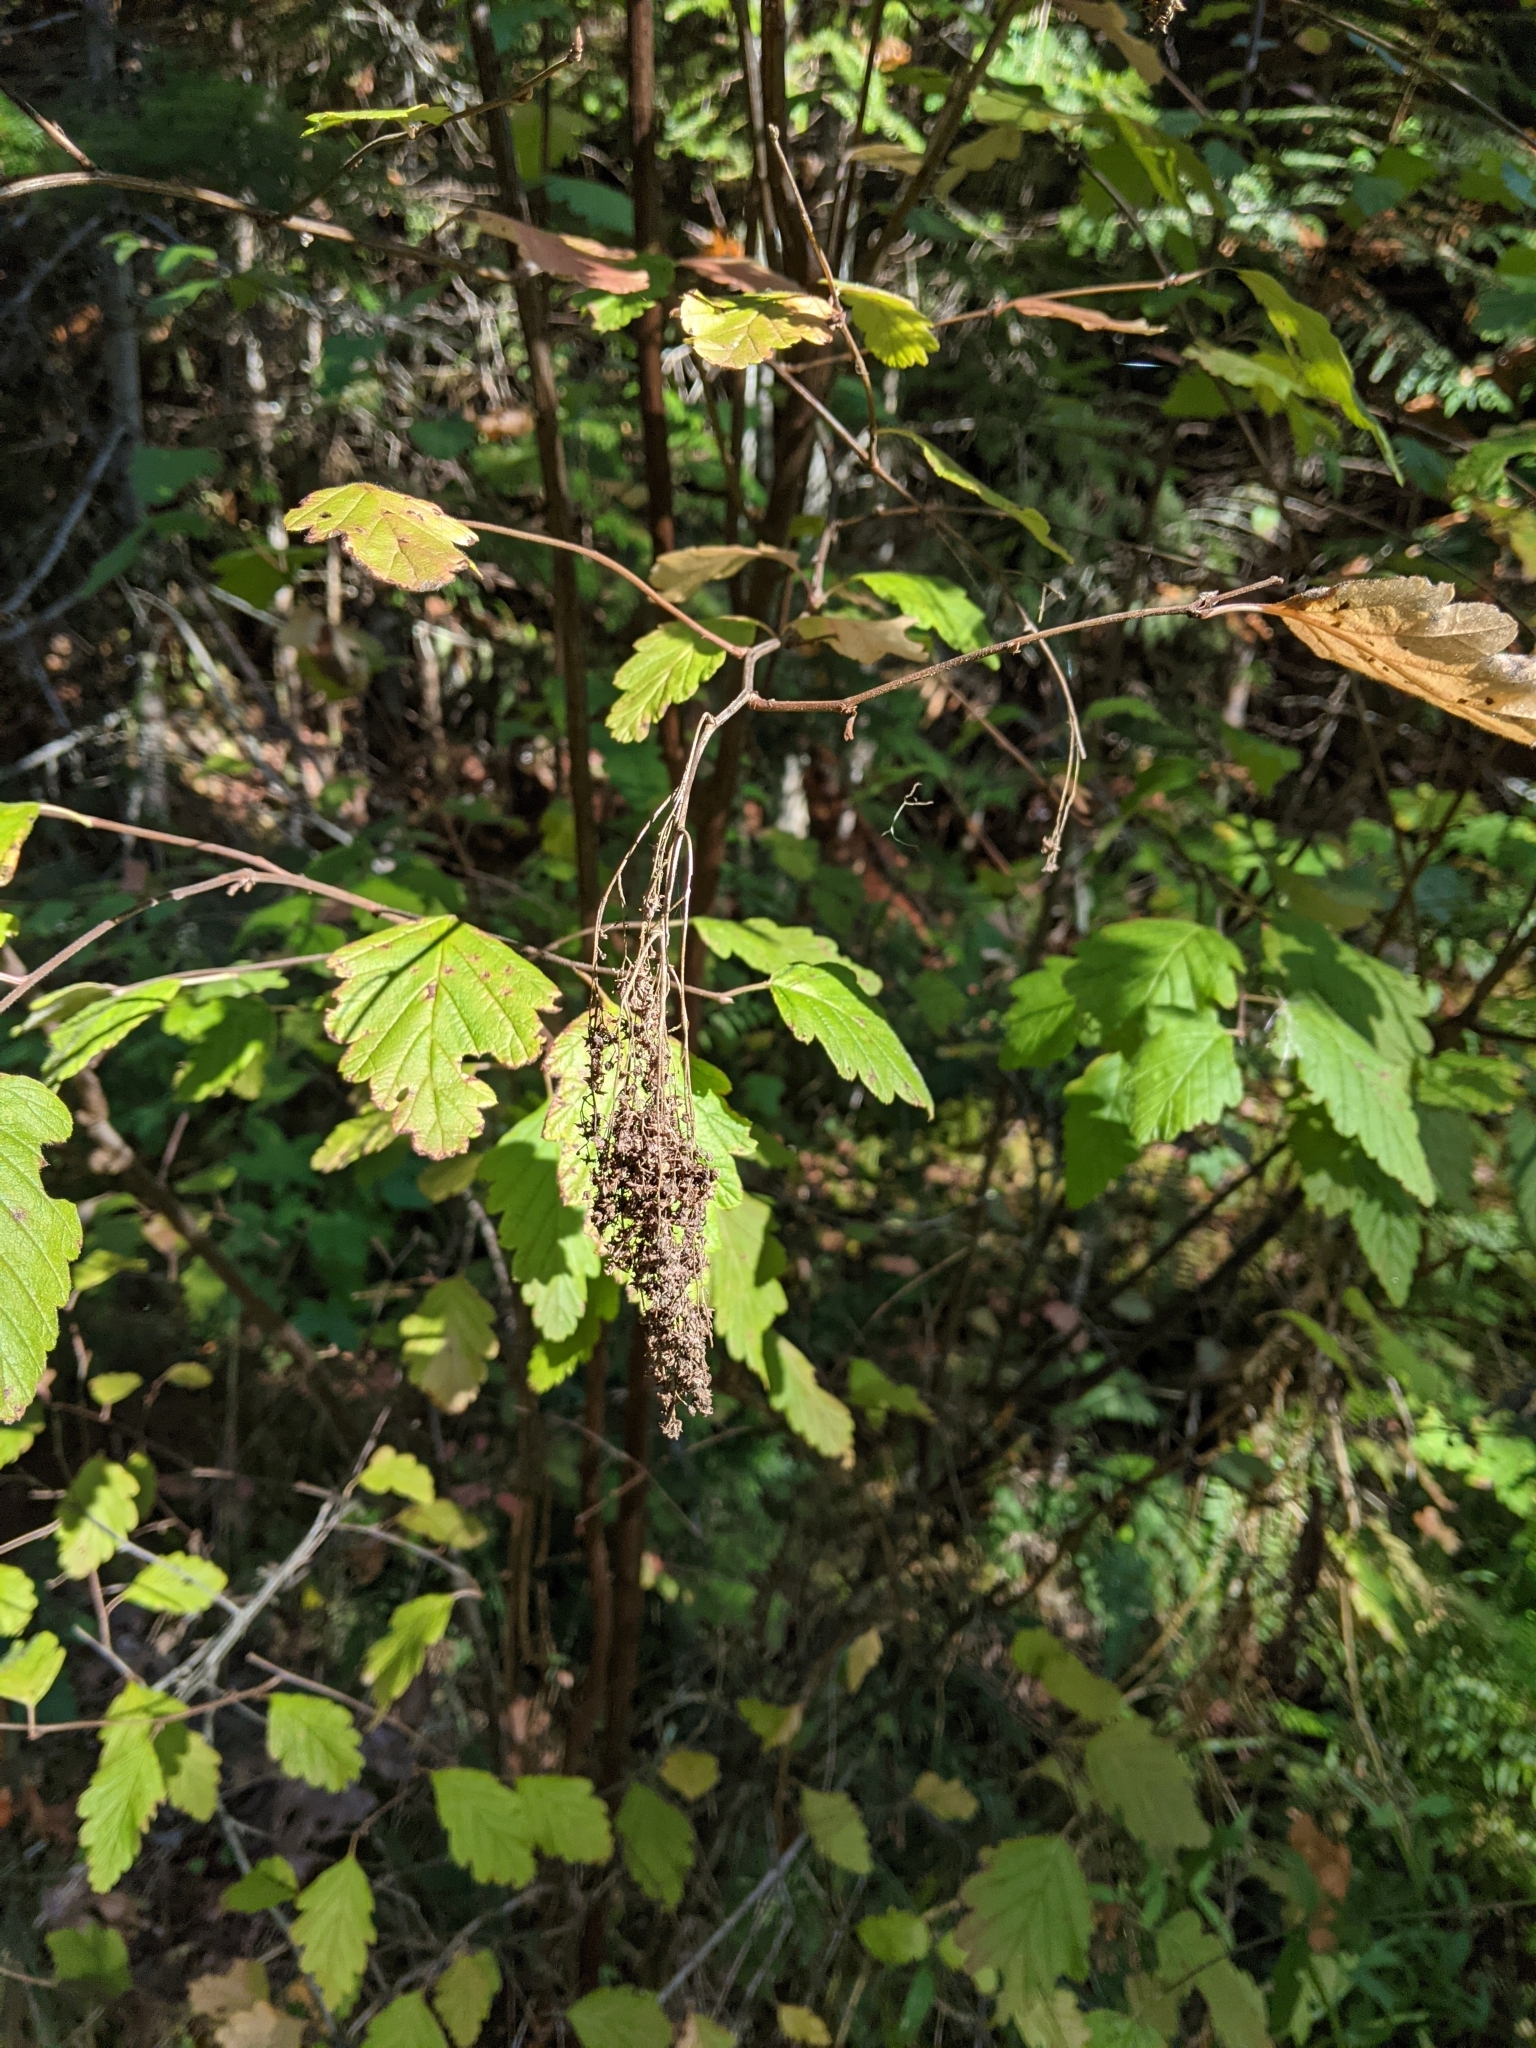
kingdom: Plantae
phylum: Tracheophyta
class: Magnoliopsida
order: Rosales
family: Rosaceae
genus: Holodiscus
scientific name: Holodiscus discolor
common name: Oceanspray
